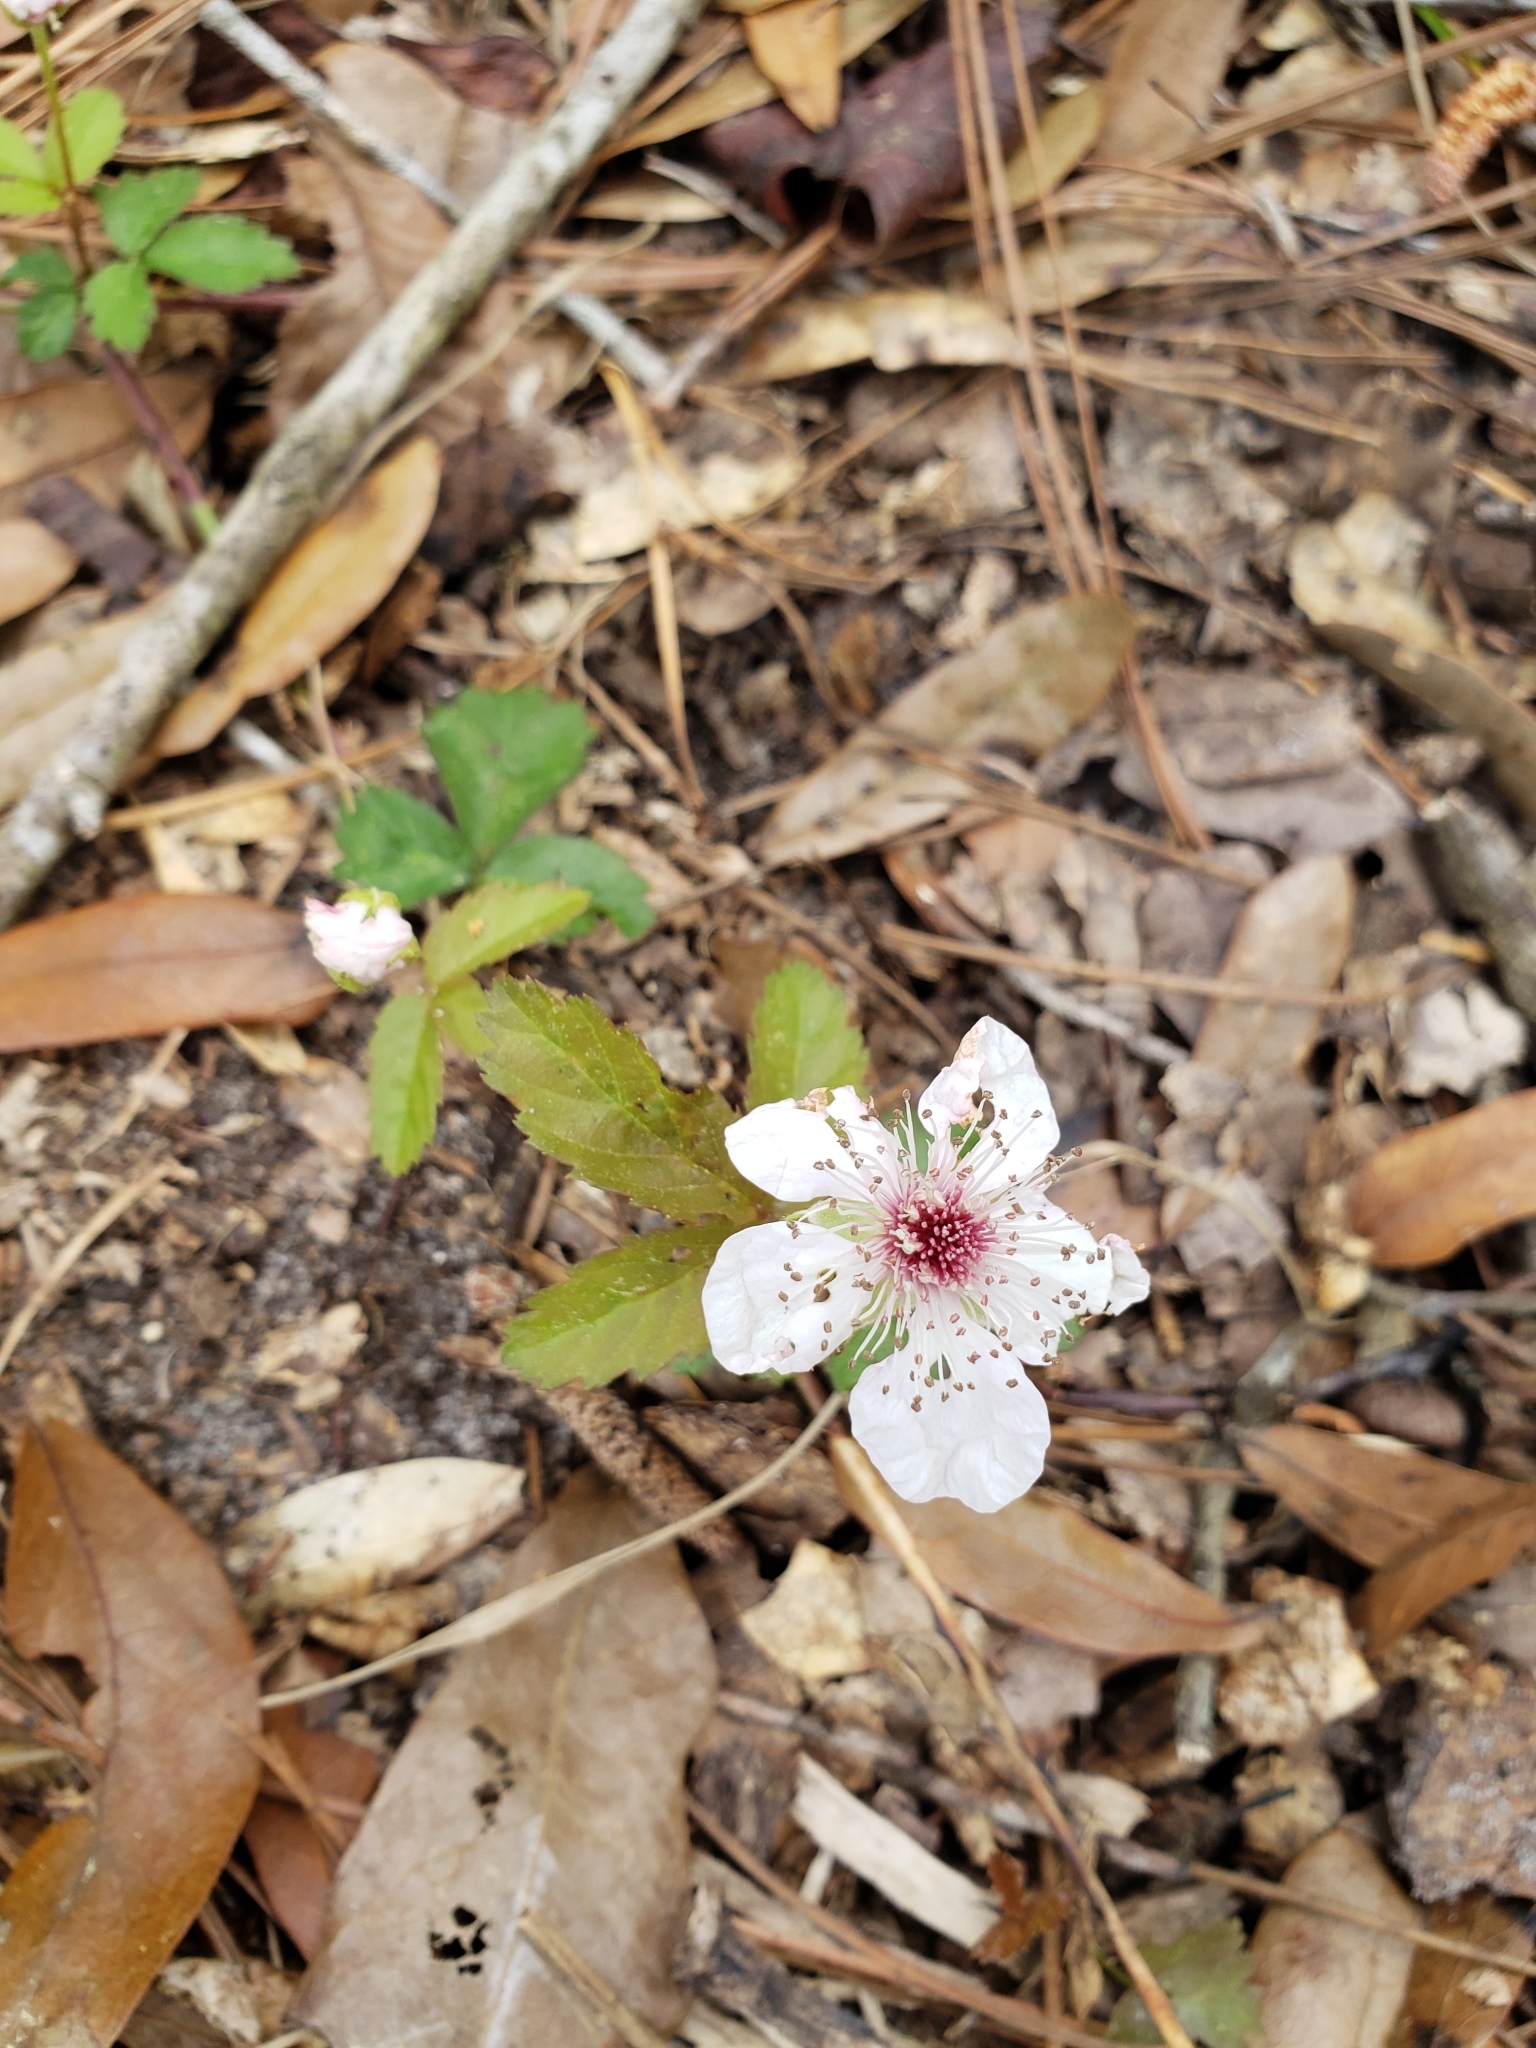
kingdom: Plantae
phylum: Tracheophyta
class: Magnoliopsida
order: Rosales
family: Rosaceae
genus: Rubus
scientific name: Rubus trivialis
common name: Southern dewberry
